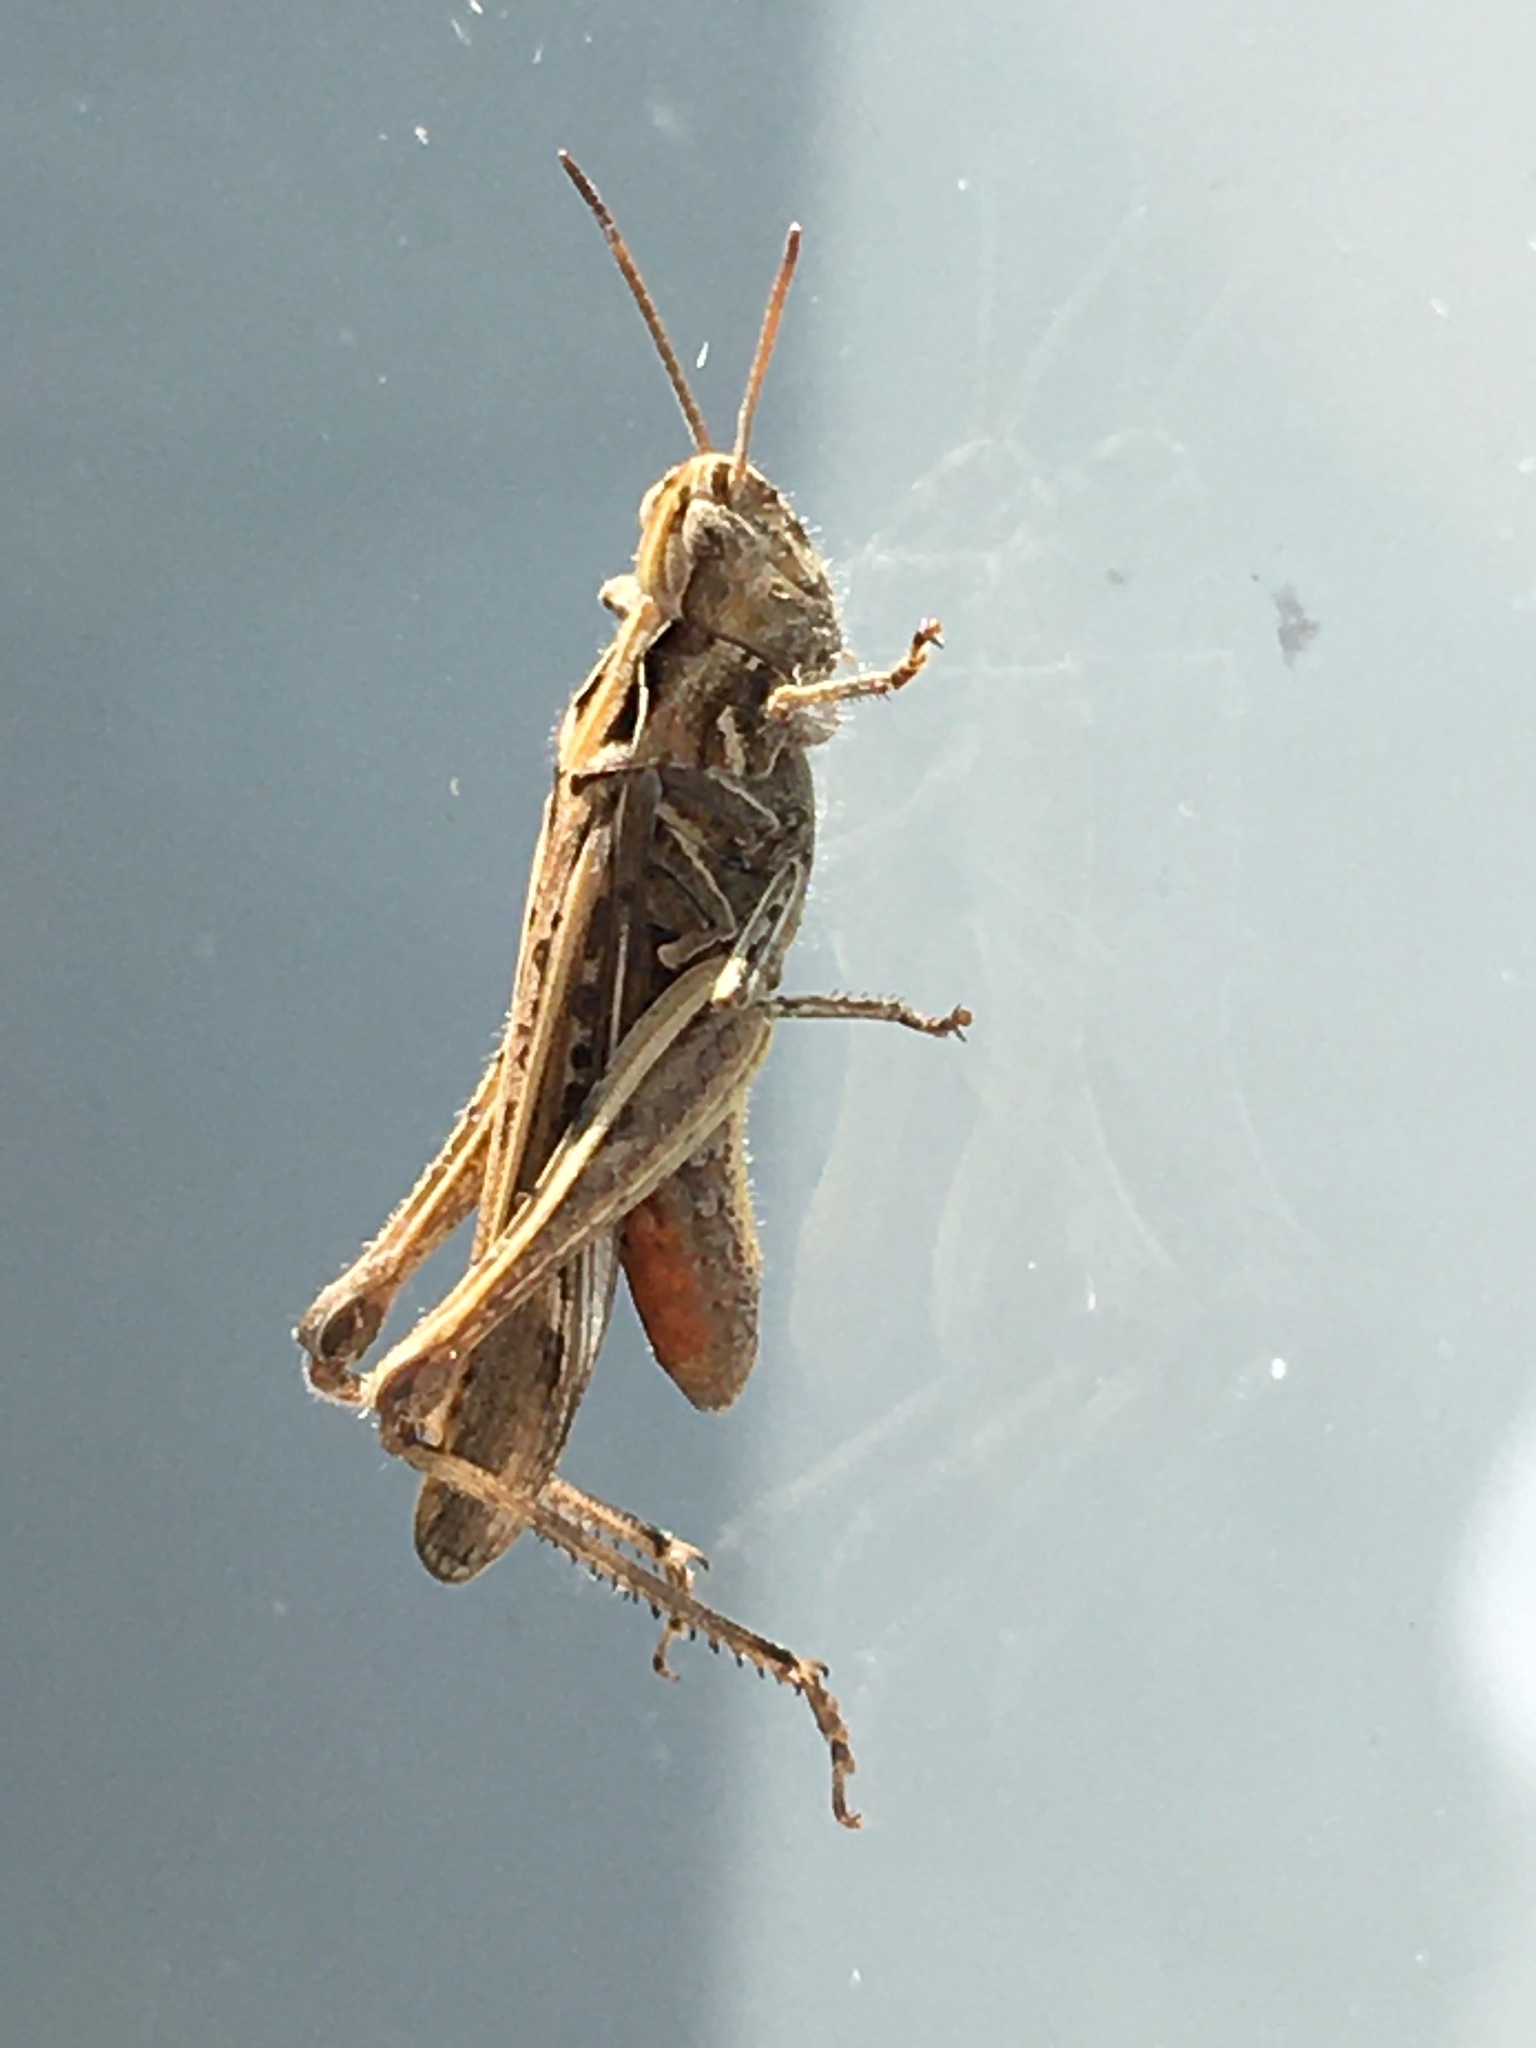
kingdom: Animalia
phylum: Arthropoda
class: Insecta
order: Orthoptera
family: Acrididae
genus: Chorthippus
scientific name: Chorthippus brunneus
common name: Field grasshopper
